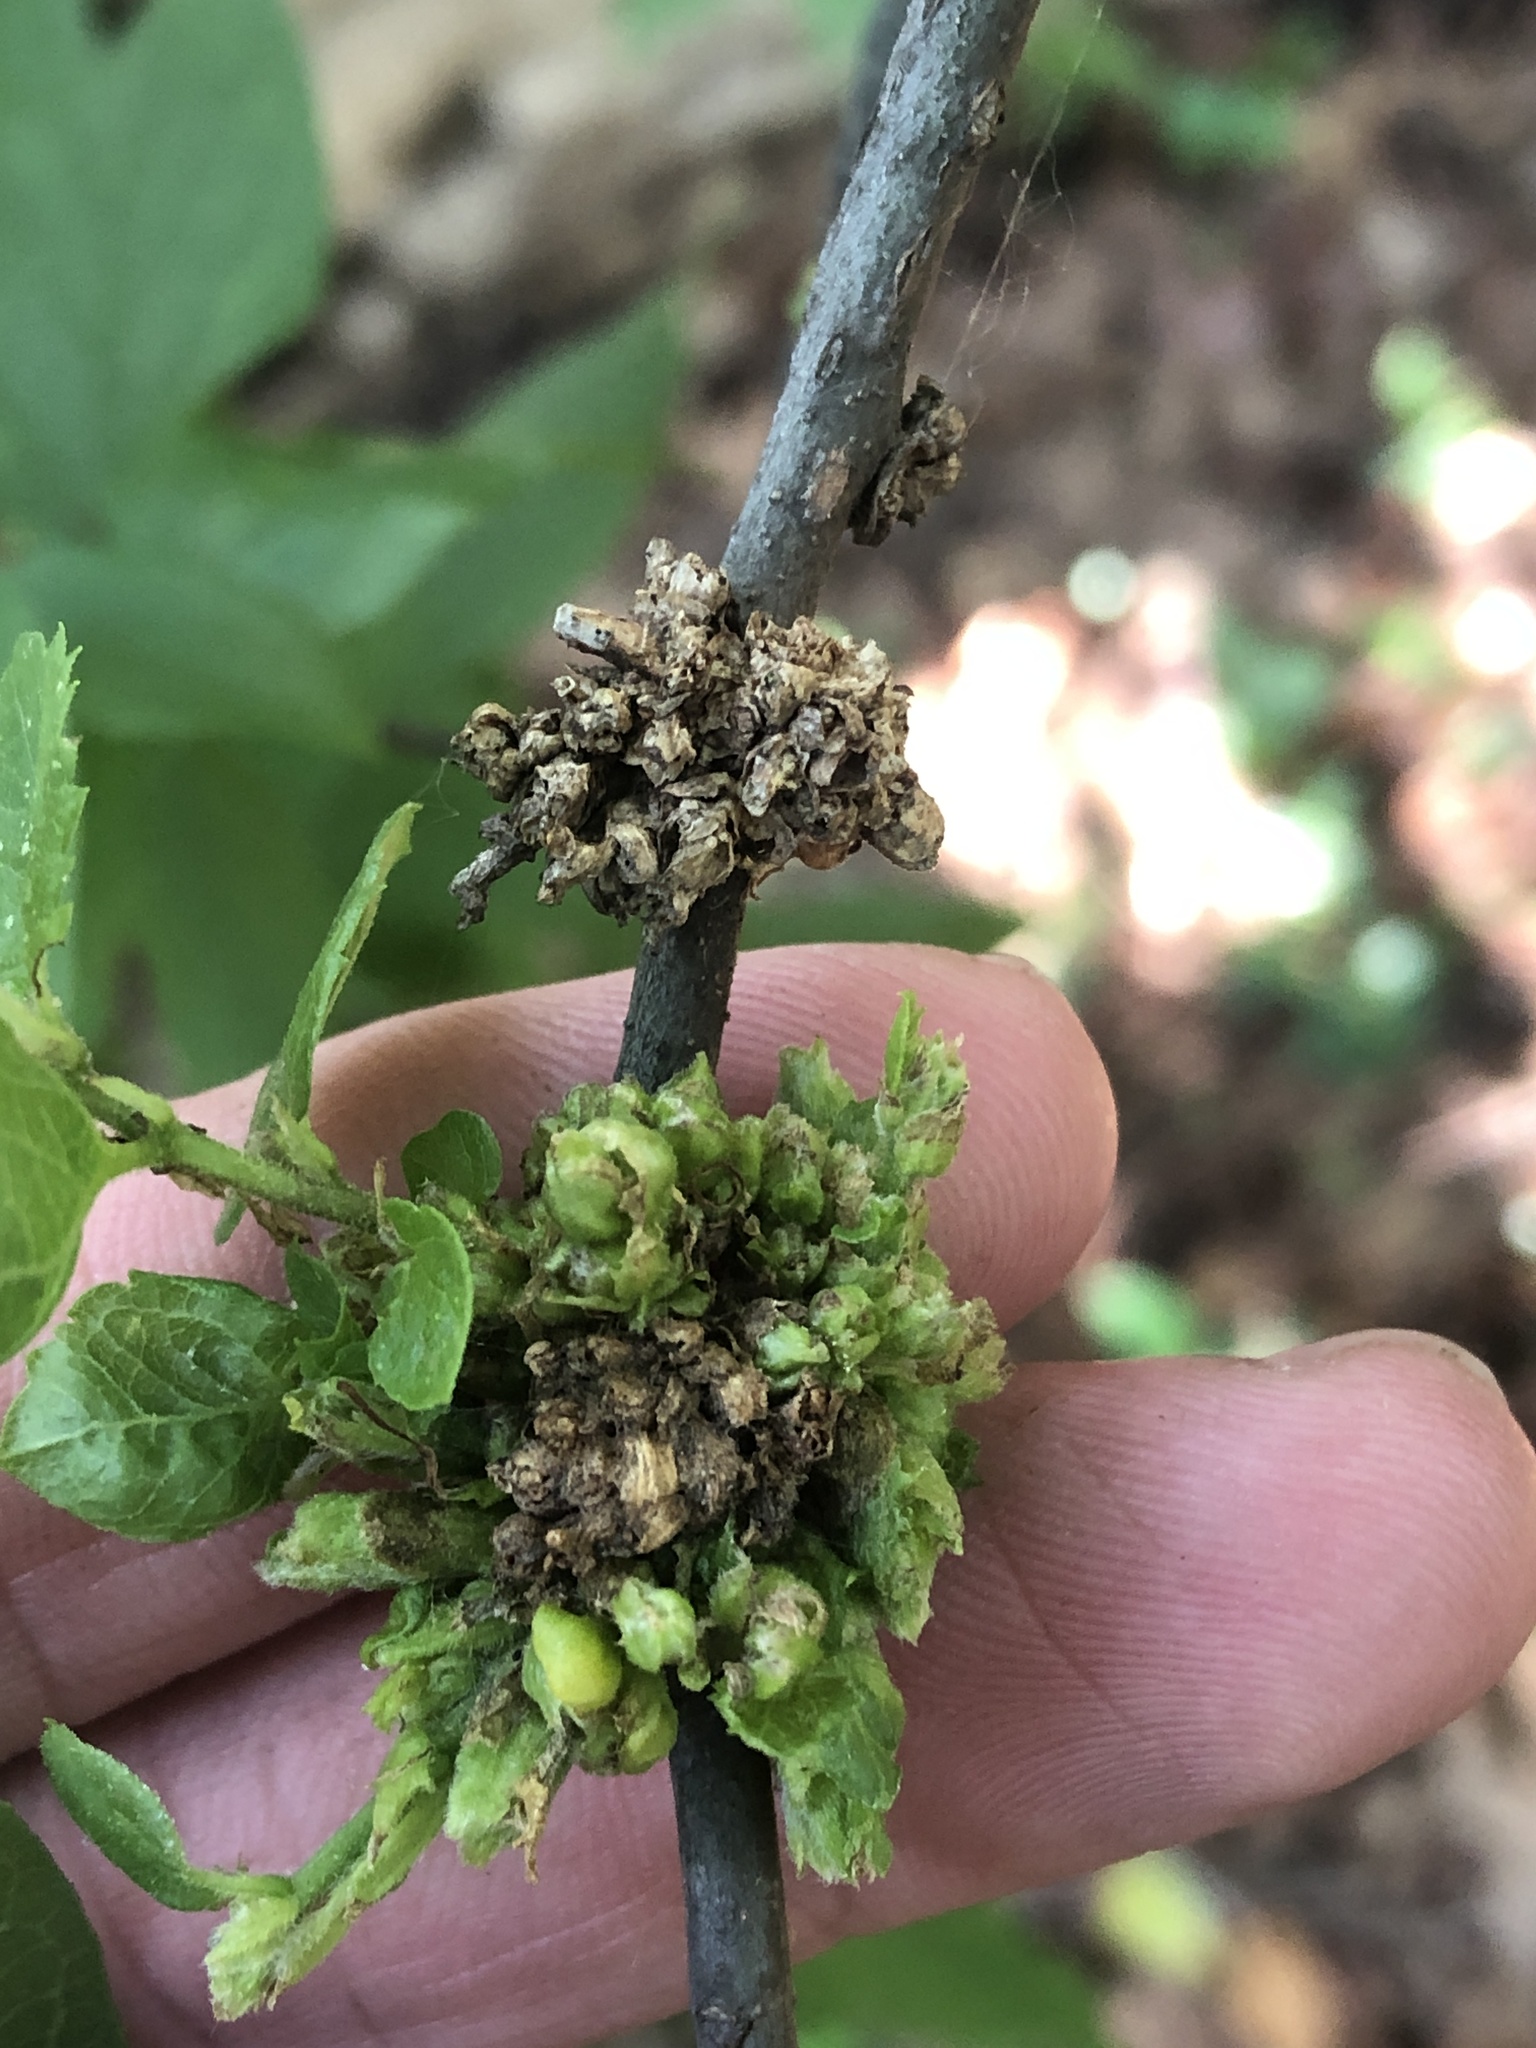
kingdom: Animalia
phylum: Arthropoda
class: Arachnida
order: Trombidiformes
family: Eriophyidae
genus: Aceria
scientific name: Aceria
